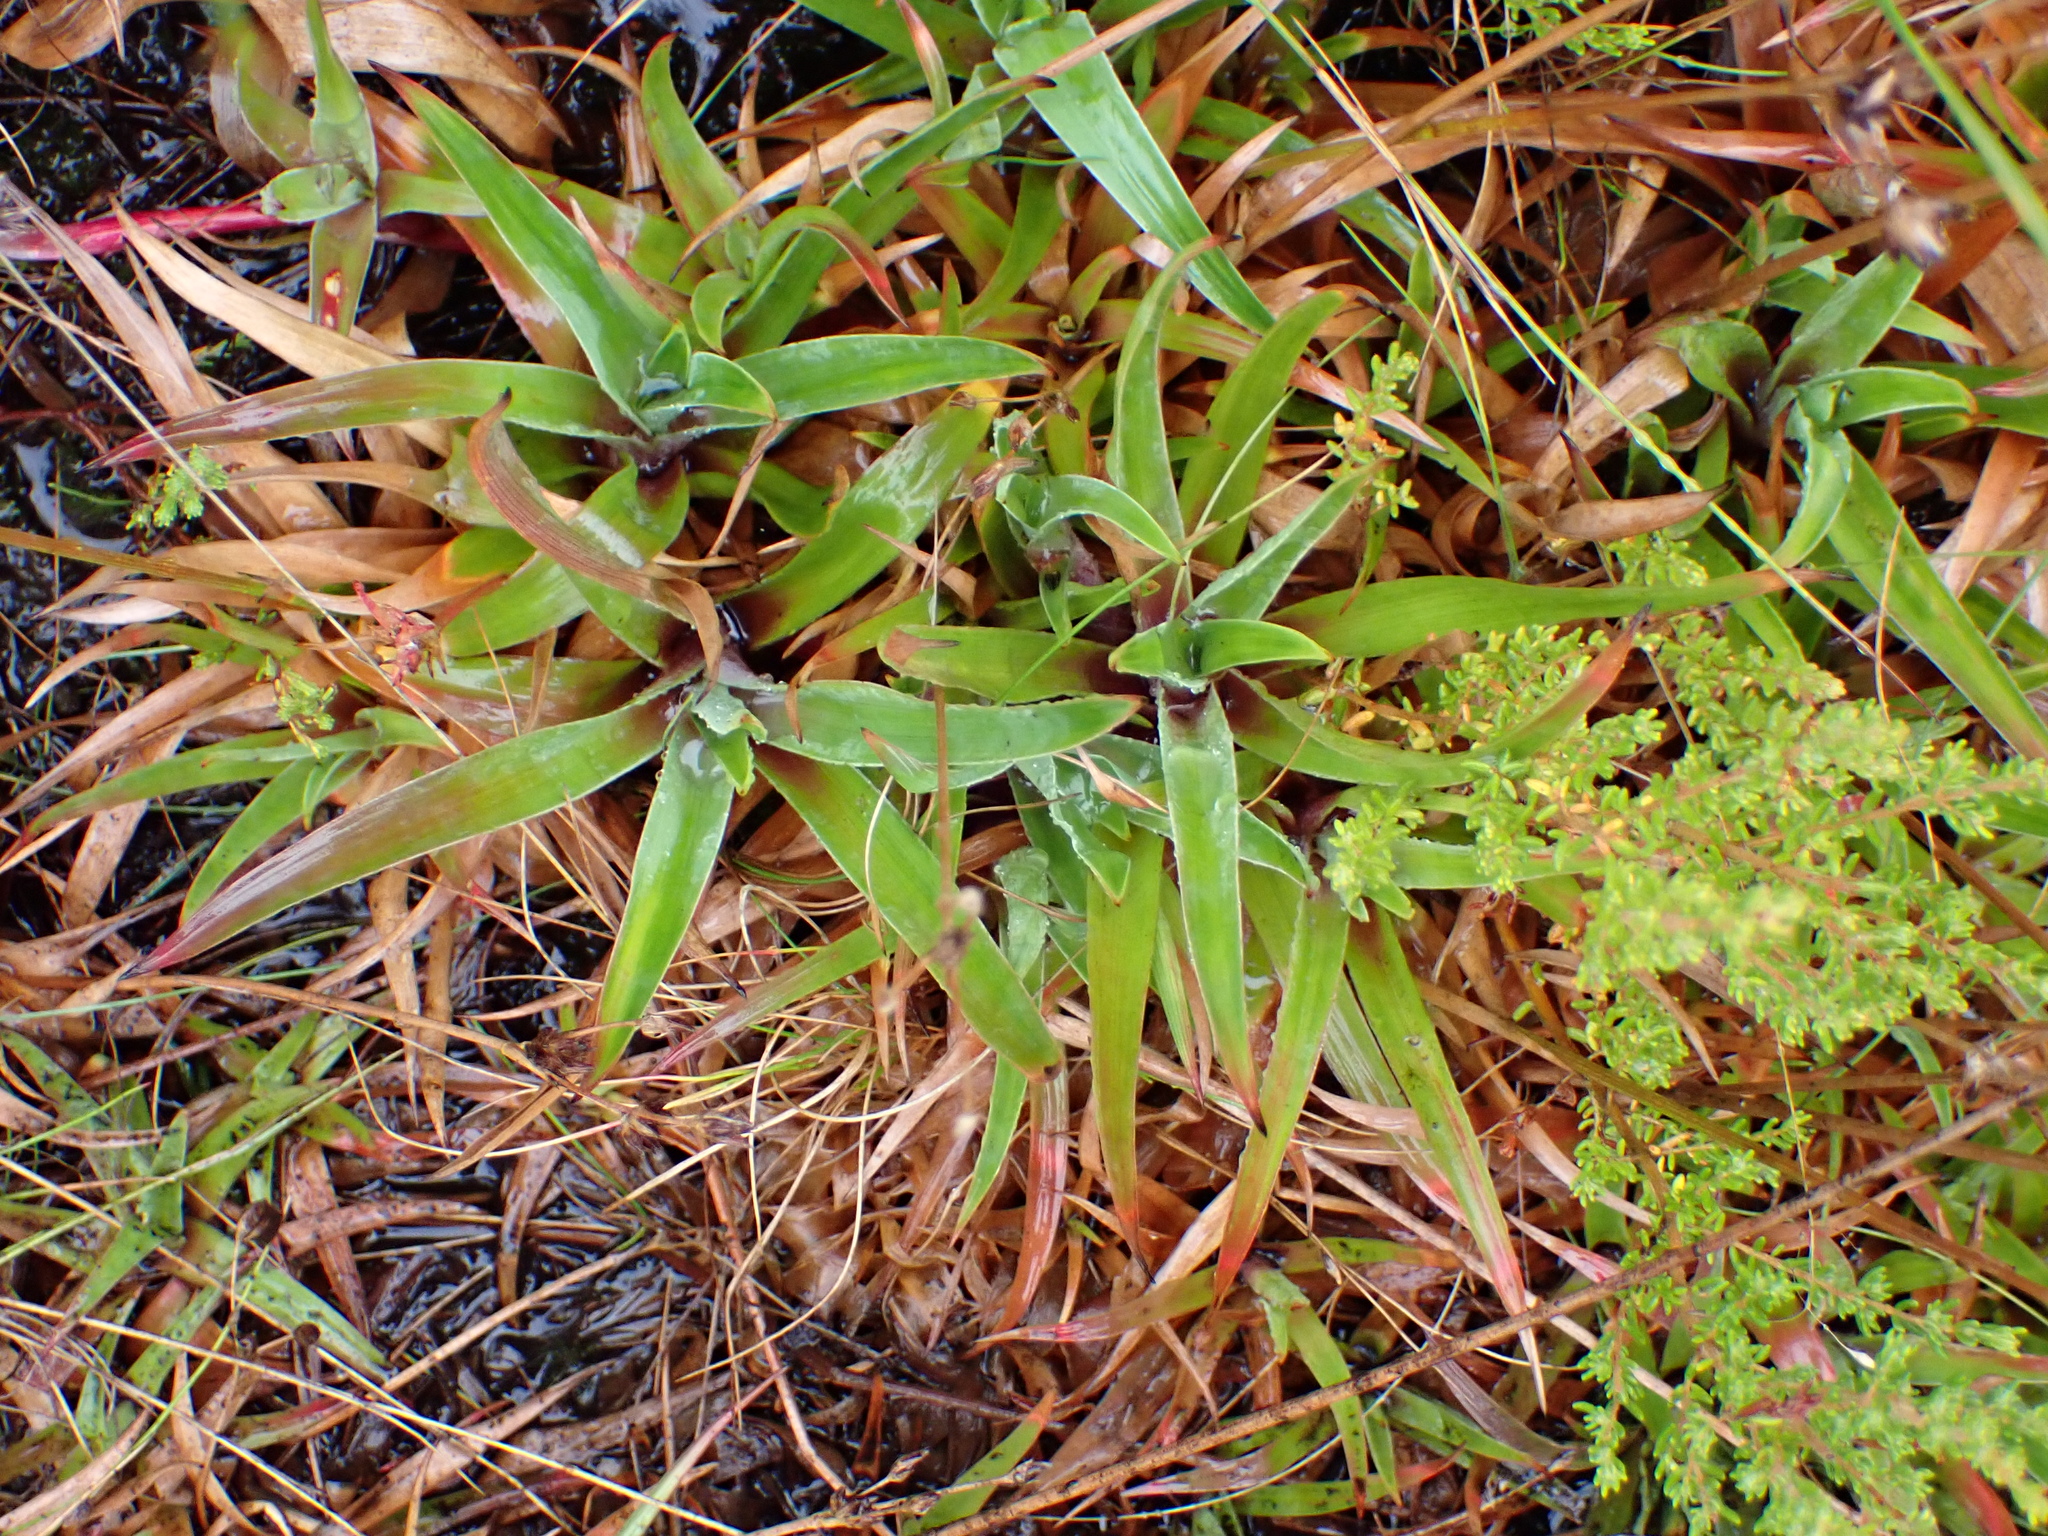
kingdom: Plantae
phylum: Tracheophyta
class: Liliopsida
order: Poales
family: Juncaceae
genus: Juncus
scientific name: Juncus lomatophyllus
